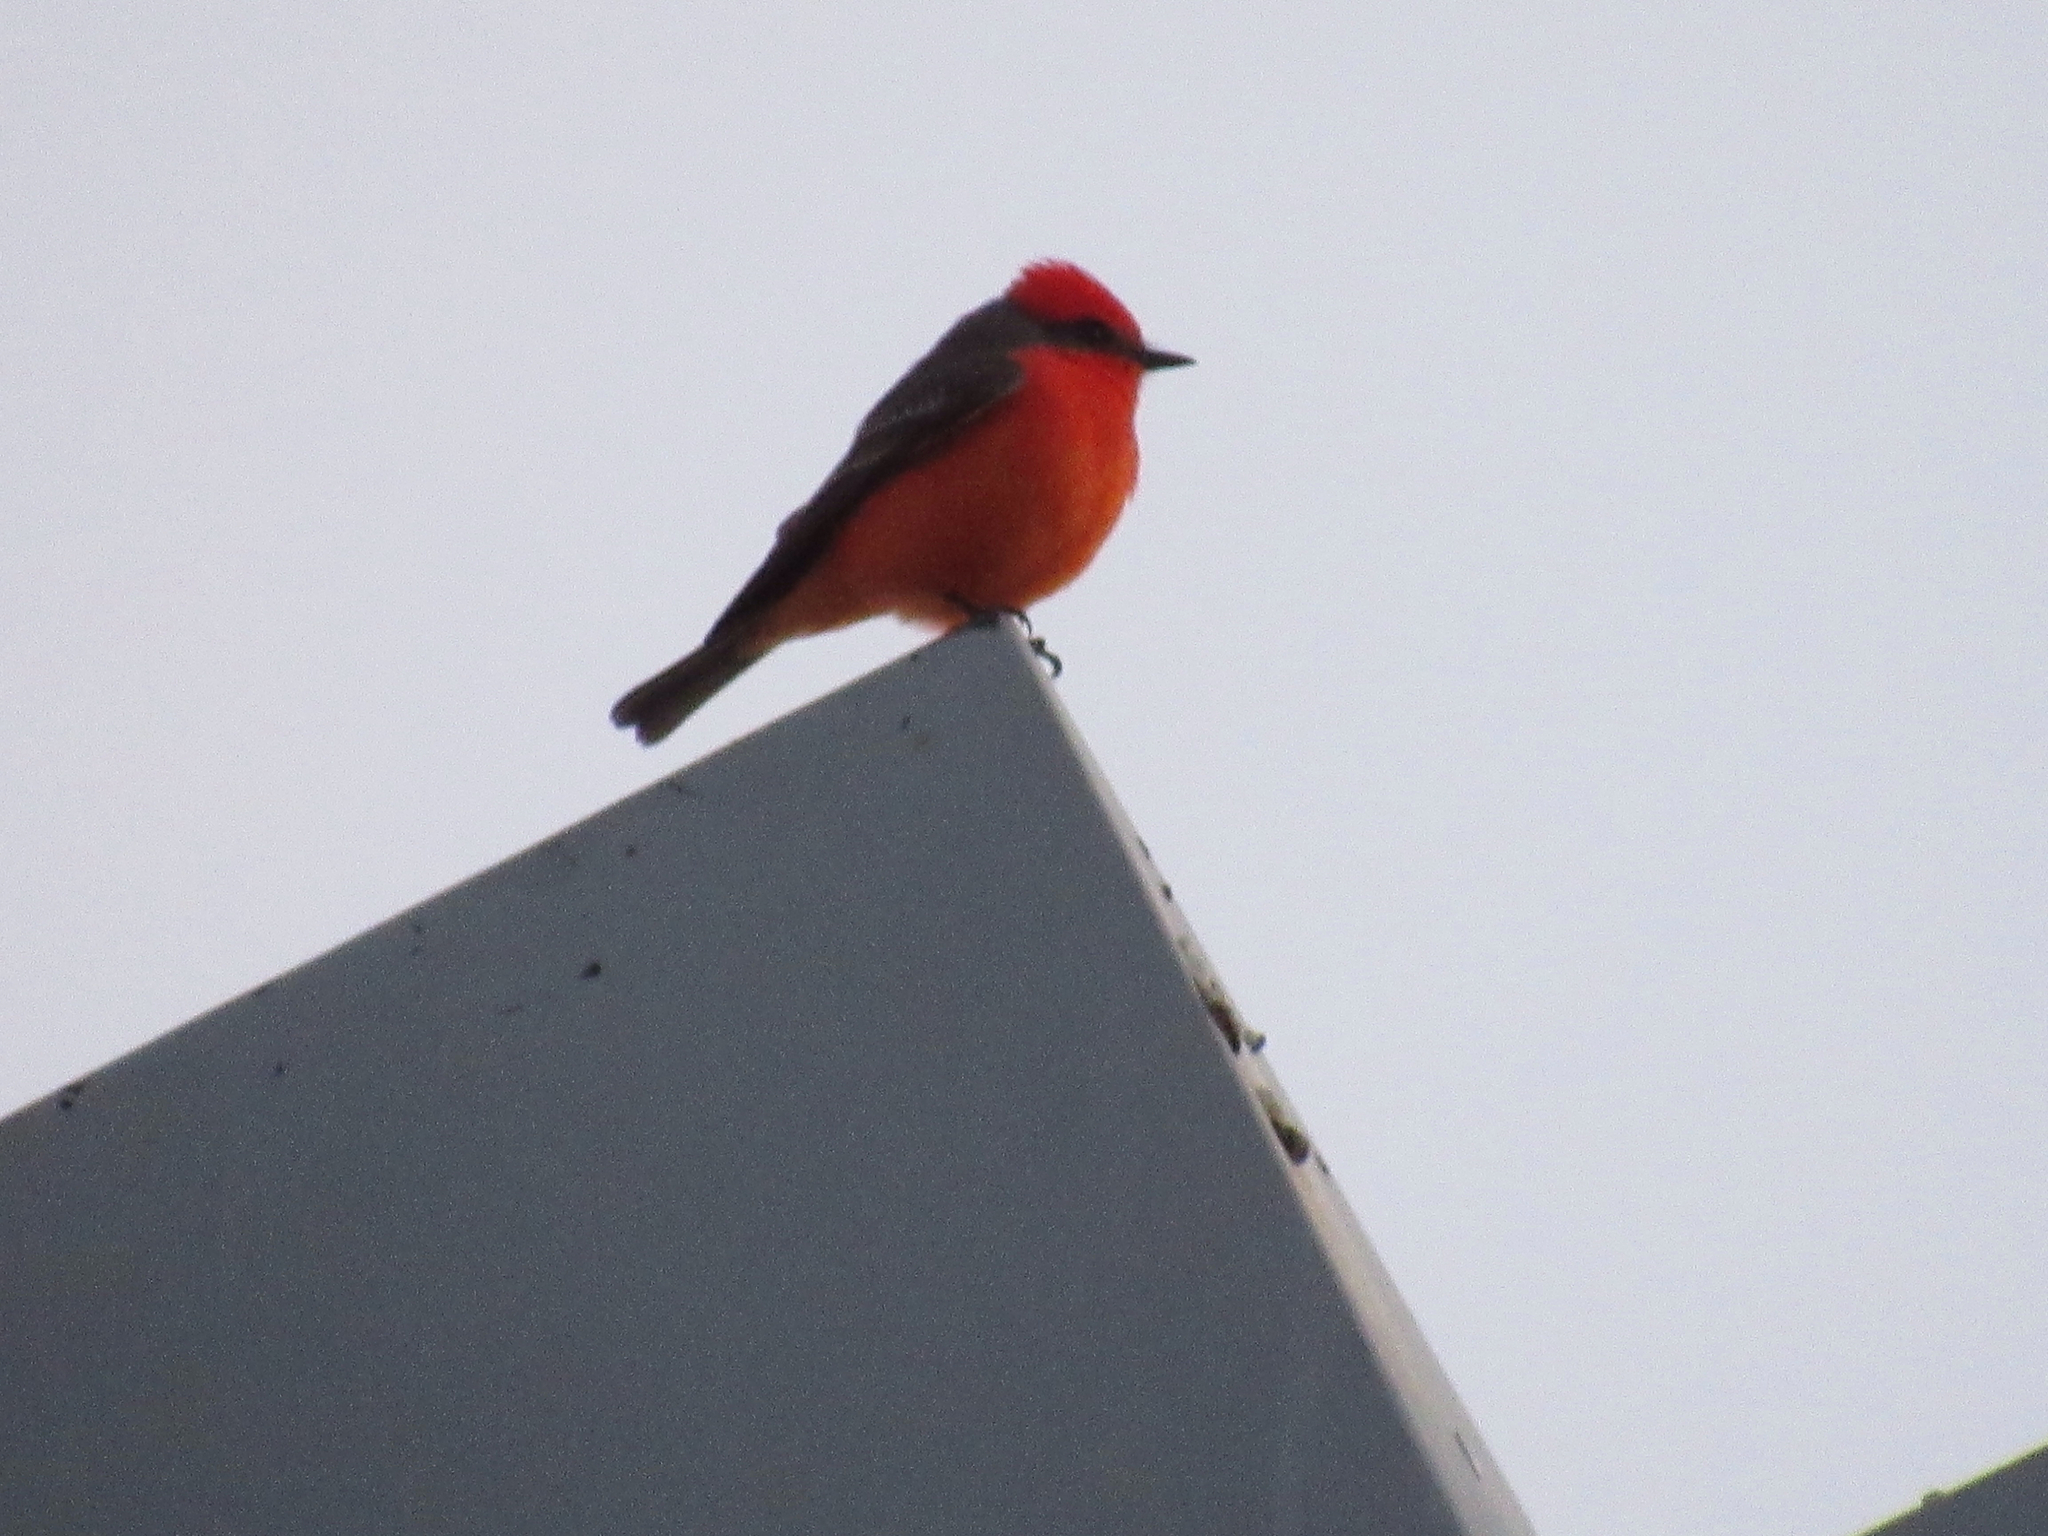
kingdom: Animalia
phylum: Chordata
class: Aves
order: Passeriformes
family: Tyrannidae
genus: Pyrocephalus
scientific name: Pyrocephalus rubinus
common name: Vermilion flycatcher
